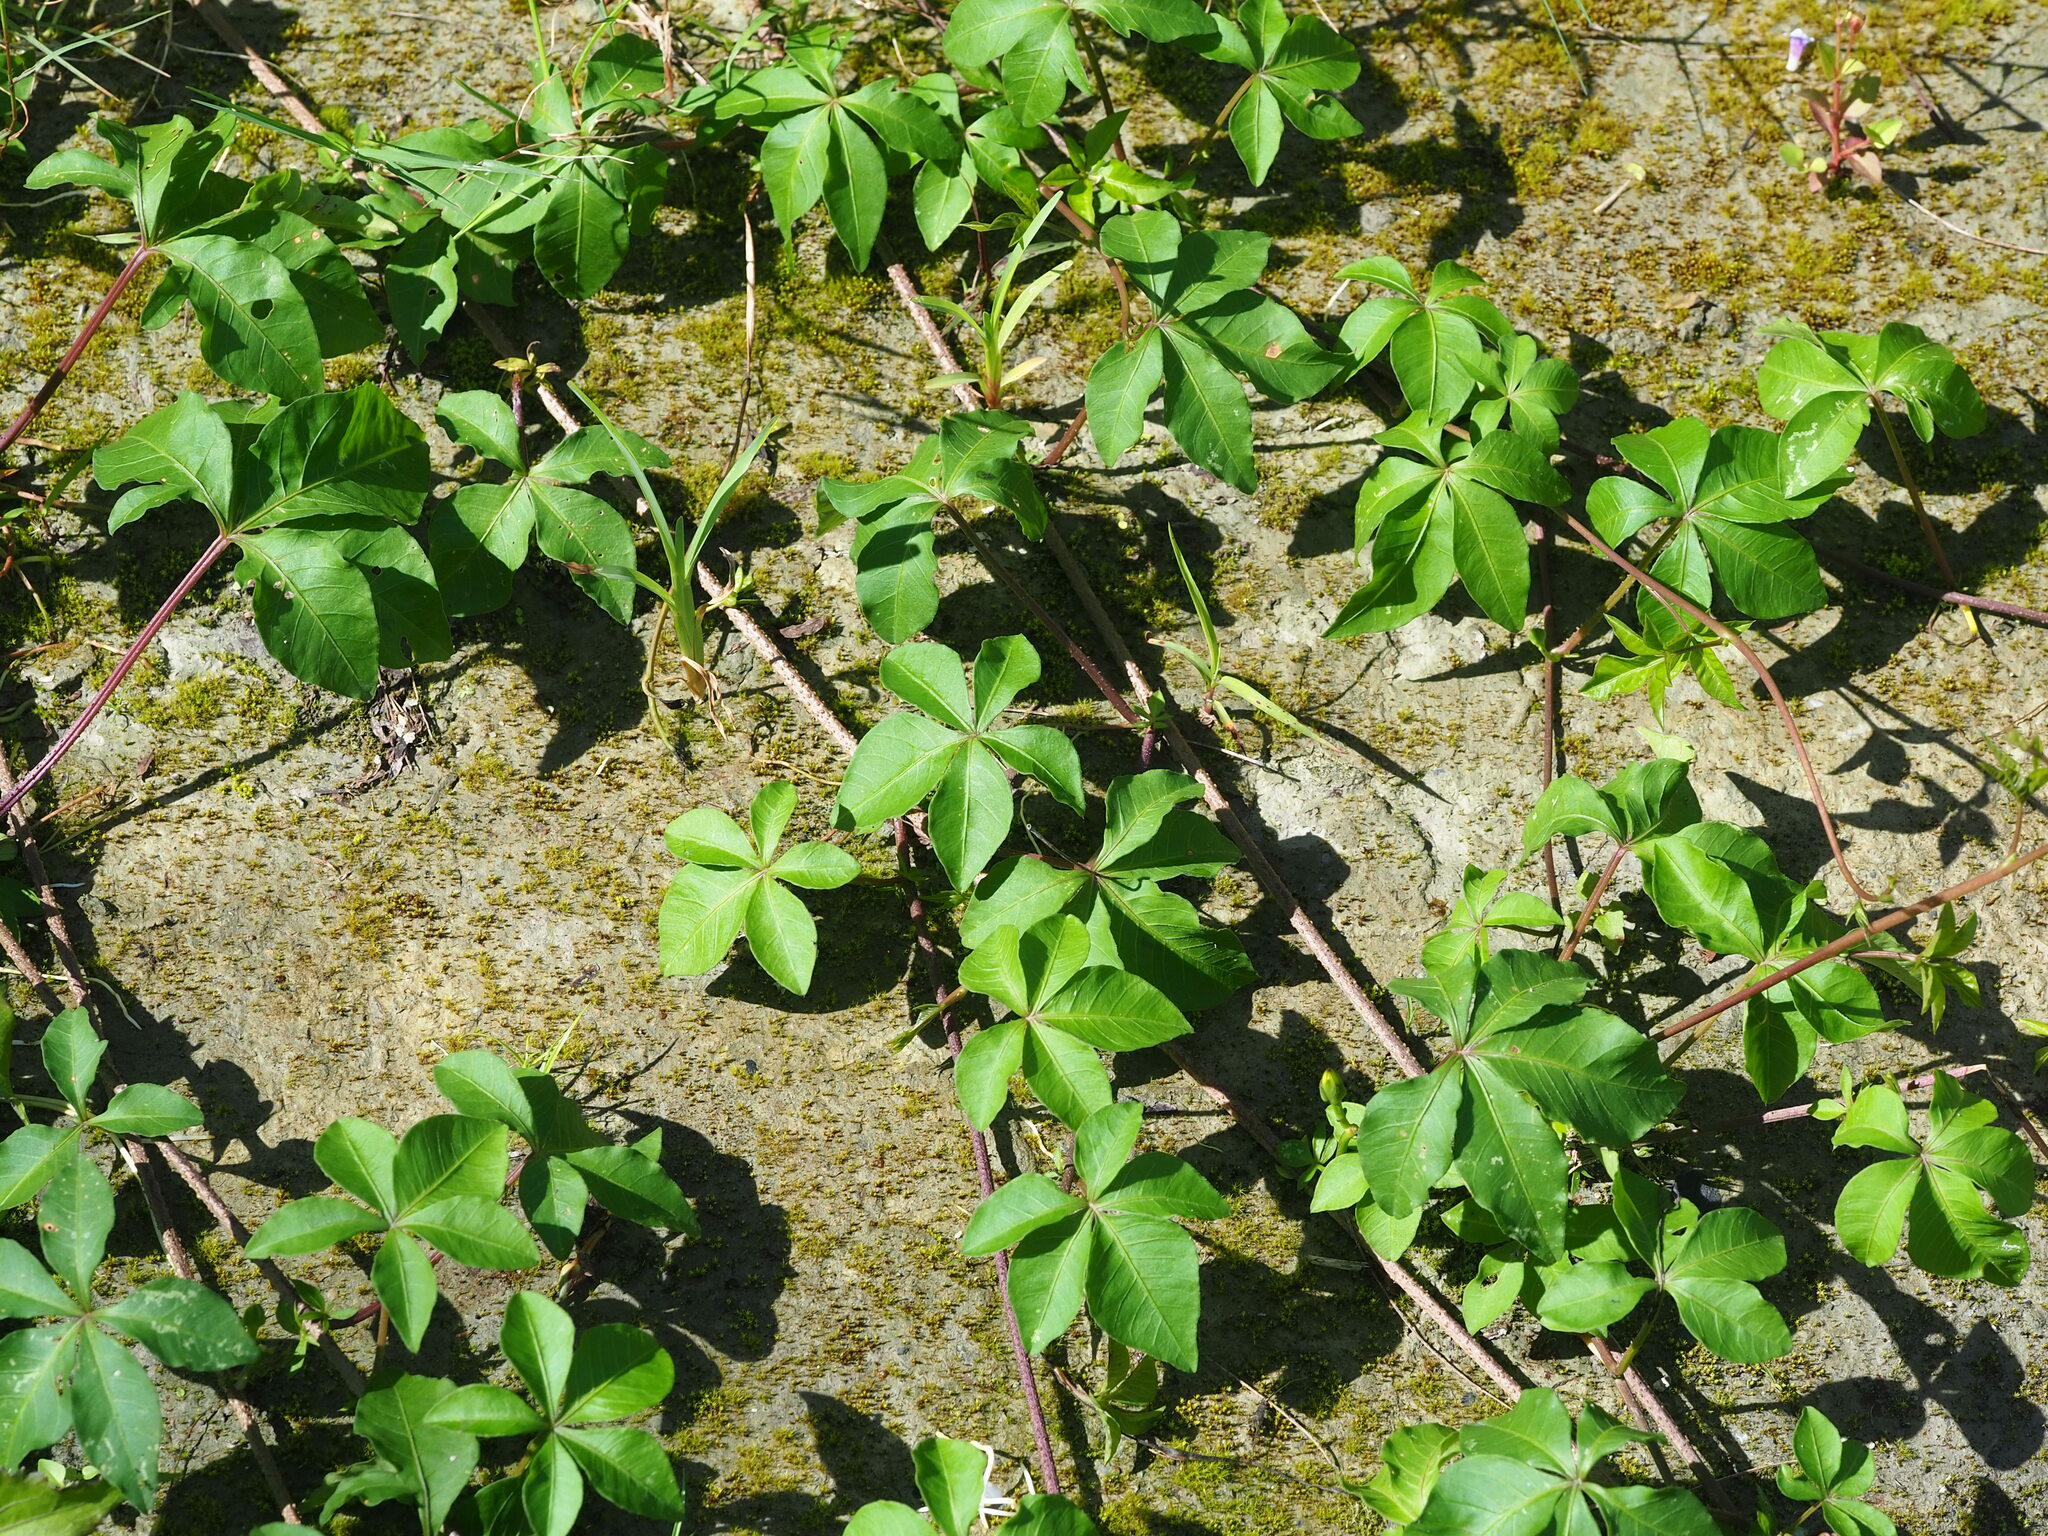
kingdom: Plantae
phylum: Tracheophyta
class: Magnoliopsida
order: Solanales
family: Convolvulaceae
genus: Ipomoea
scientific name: Ipomoea cairica
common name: Mile a minute vine
